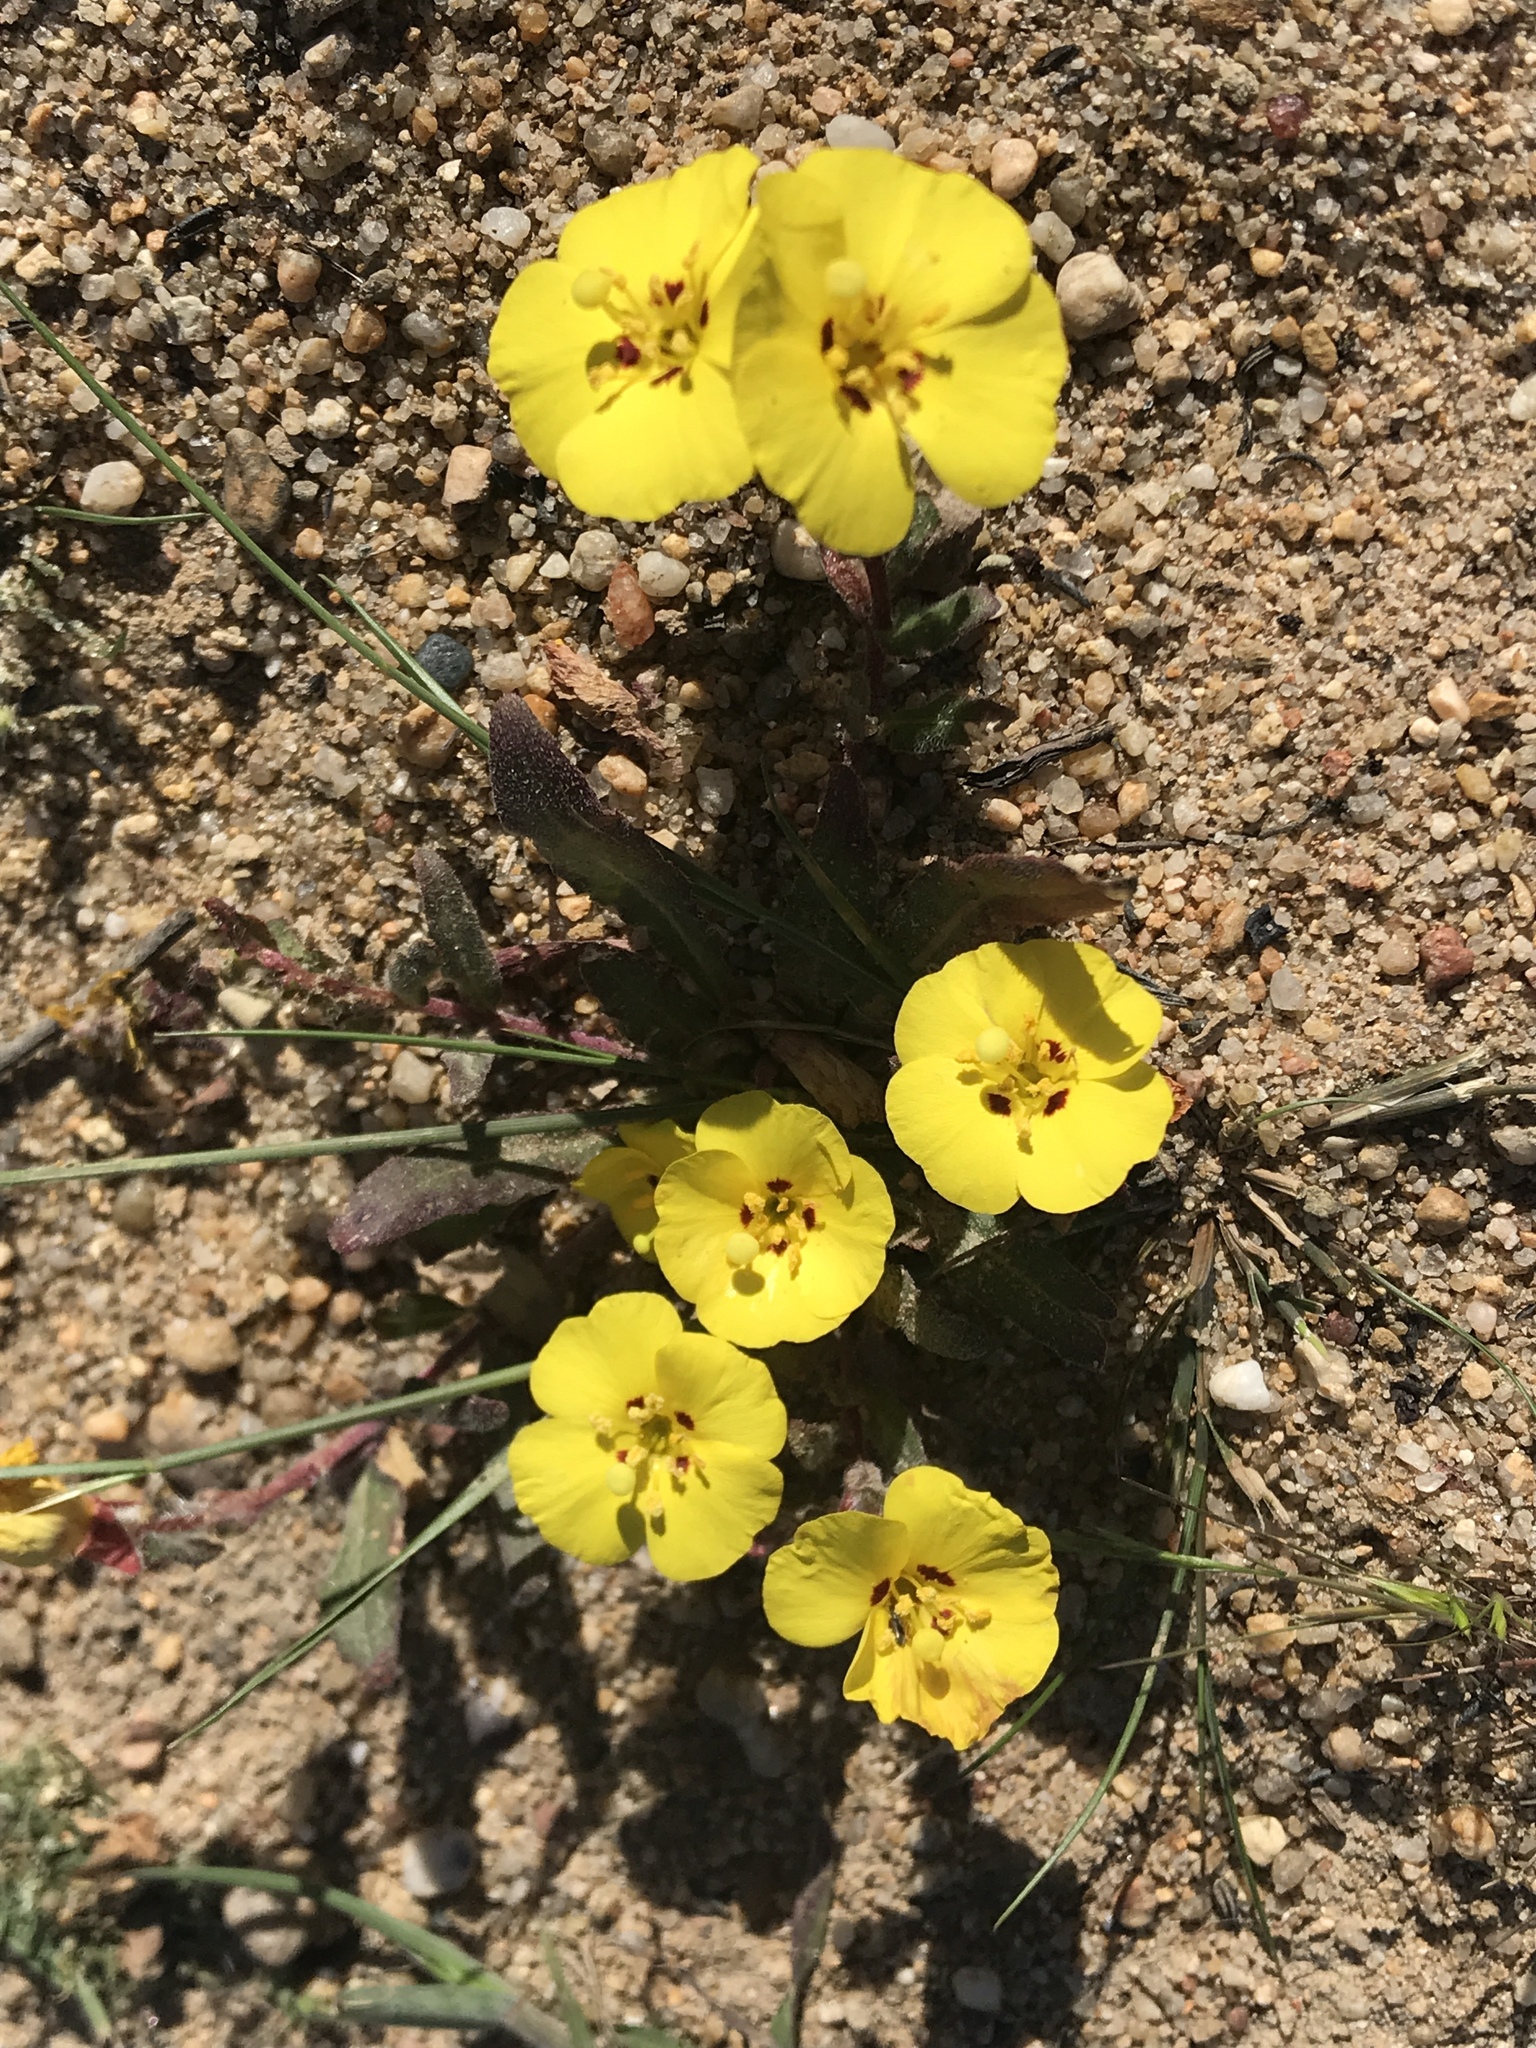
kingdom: Plantae
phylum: Tracheophyta
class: Magnoliopsida
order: Myrtales
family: Onagraceae
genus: Camissoniopsis
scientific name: Camissoniopsis bistorta
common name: Southern suncup
